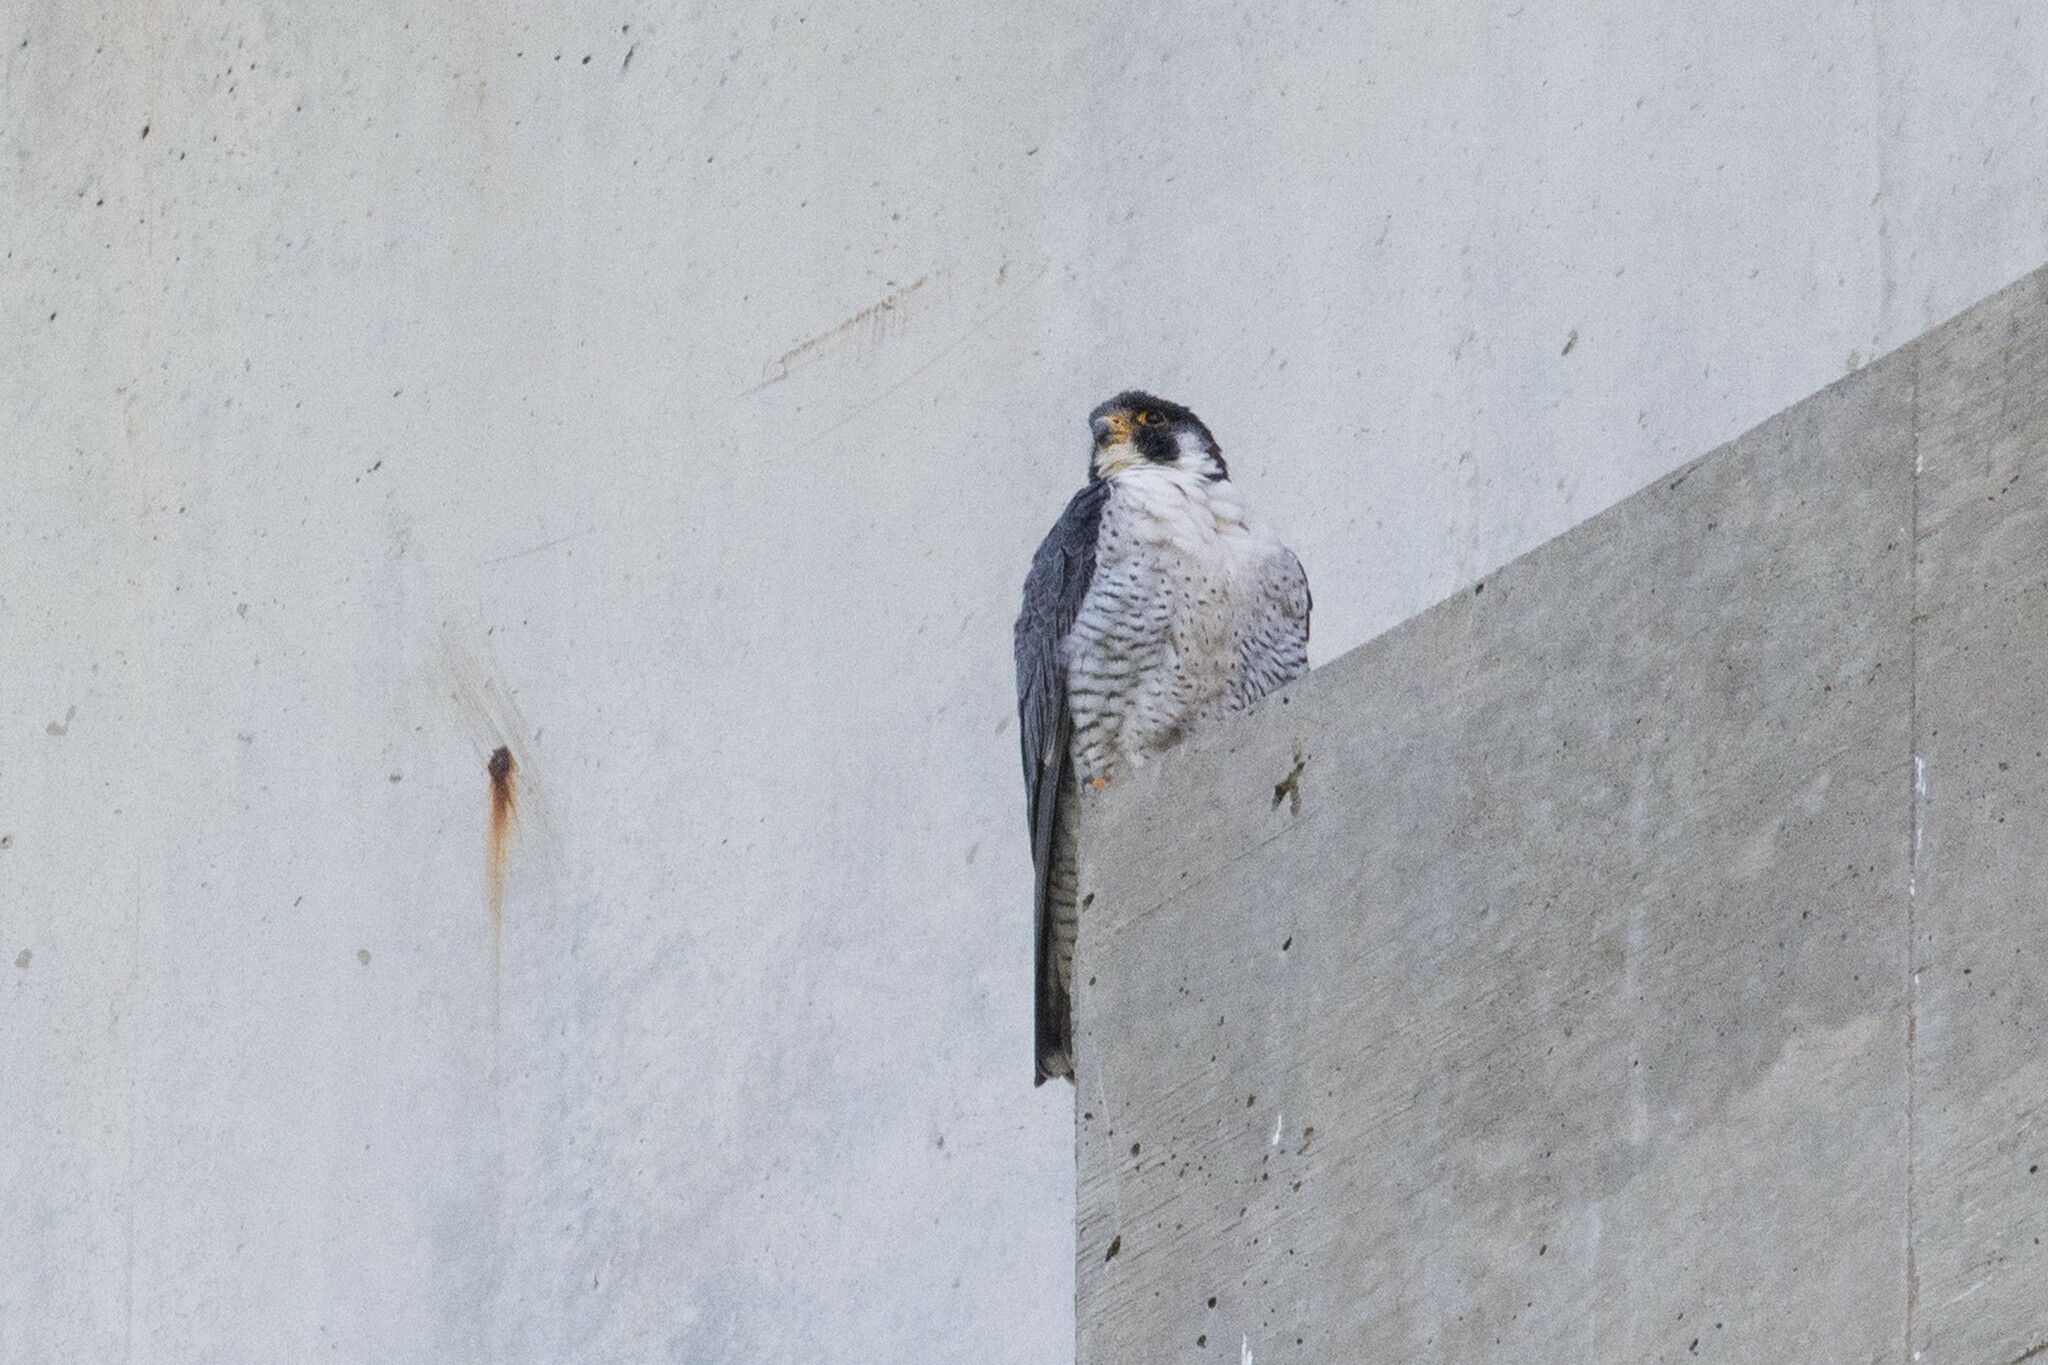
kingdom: Animalia
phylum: Chordata
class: Aves
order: Falconiformes
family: Falconidae
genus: Falco
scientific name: Falco peregrinus
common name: Peregrine falcon
